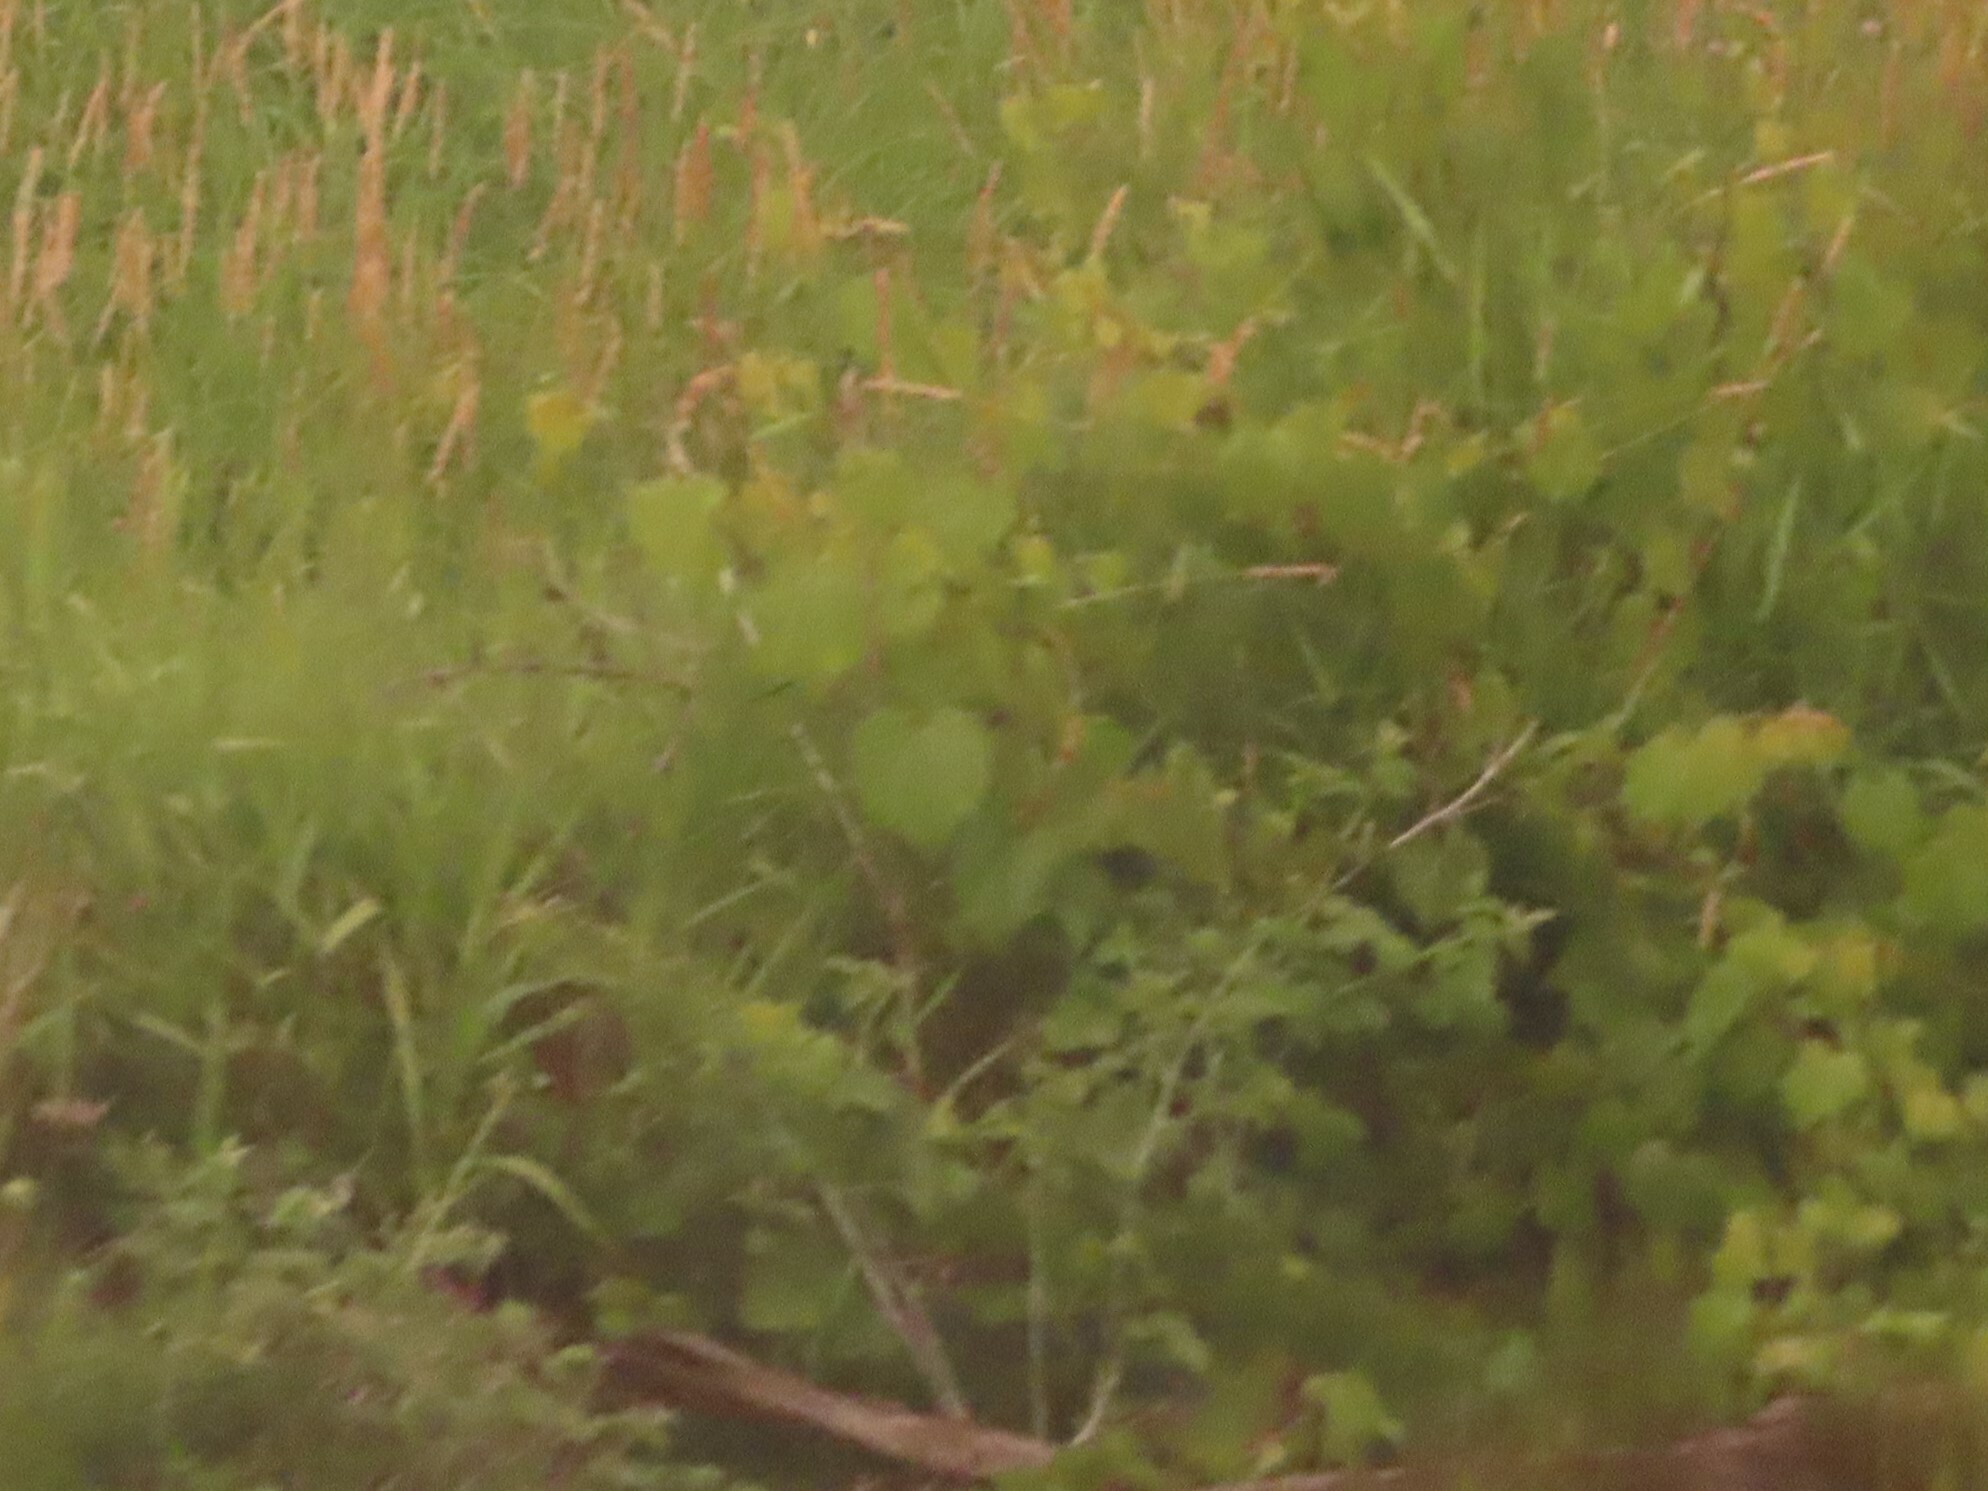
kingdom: Plantae
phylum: Tracheophyta
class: Magnoliopsida
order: Vitales
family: Vitaceae
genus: Vitis
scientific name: Vitis riparia
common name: Frost grape
